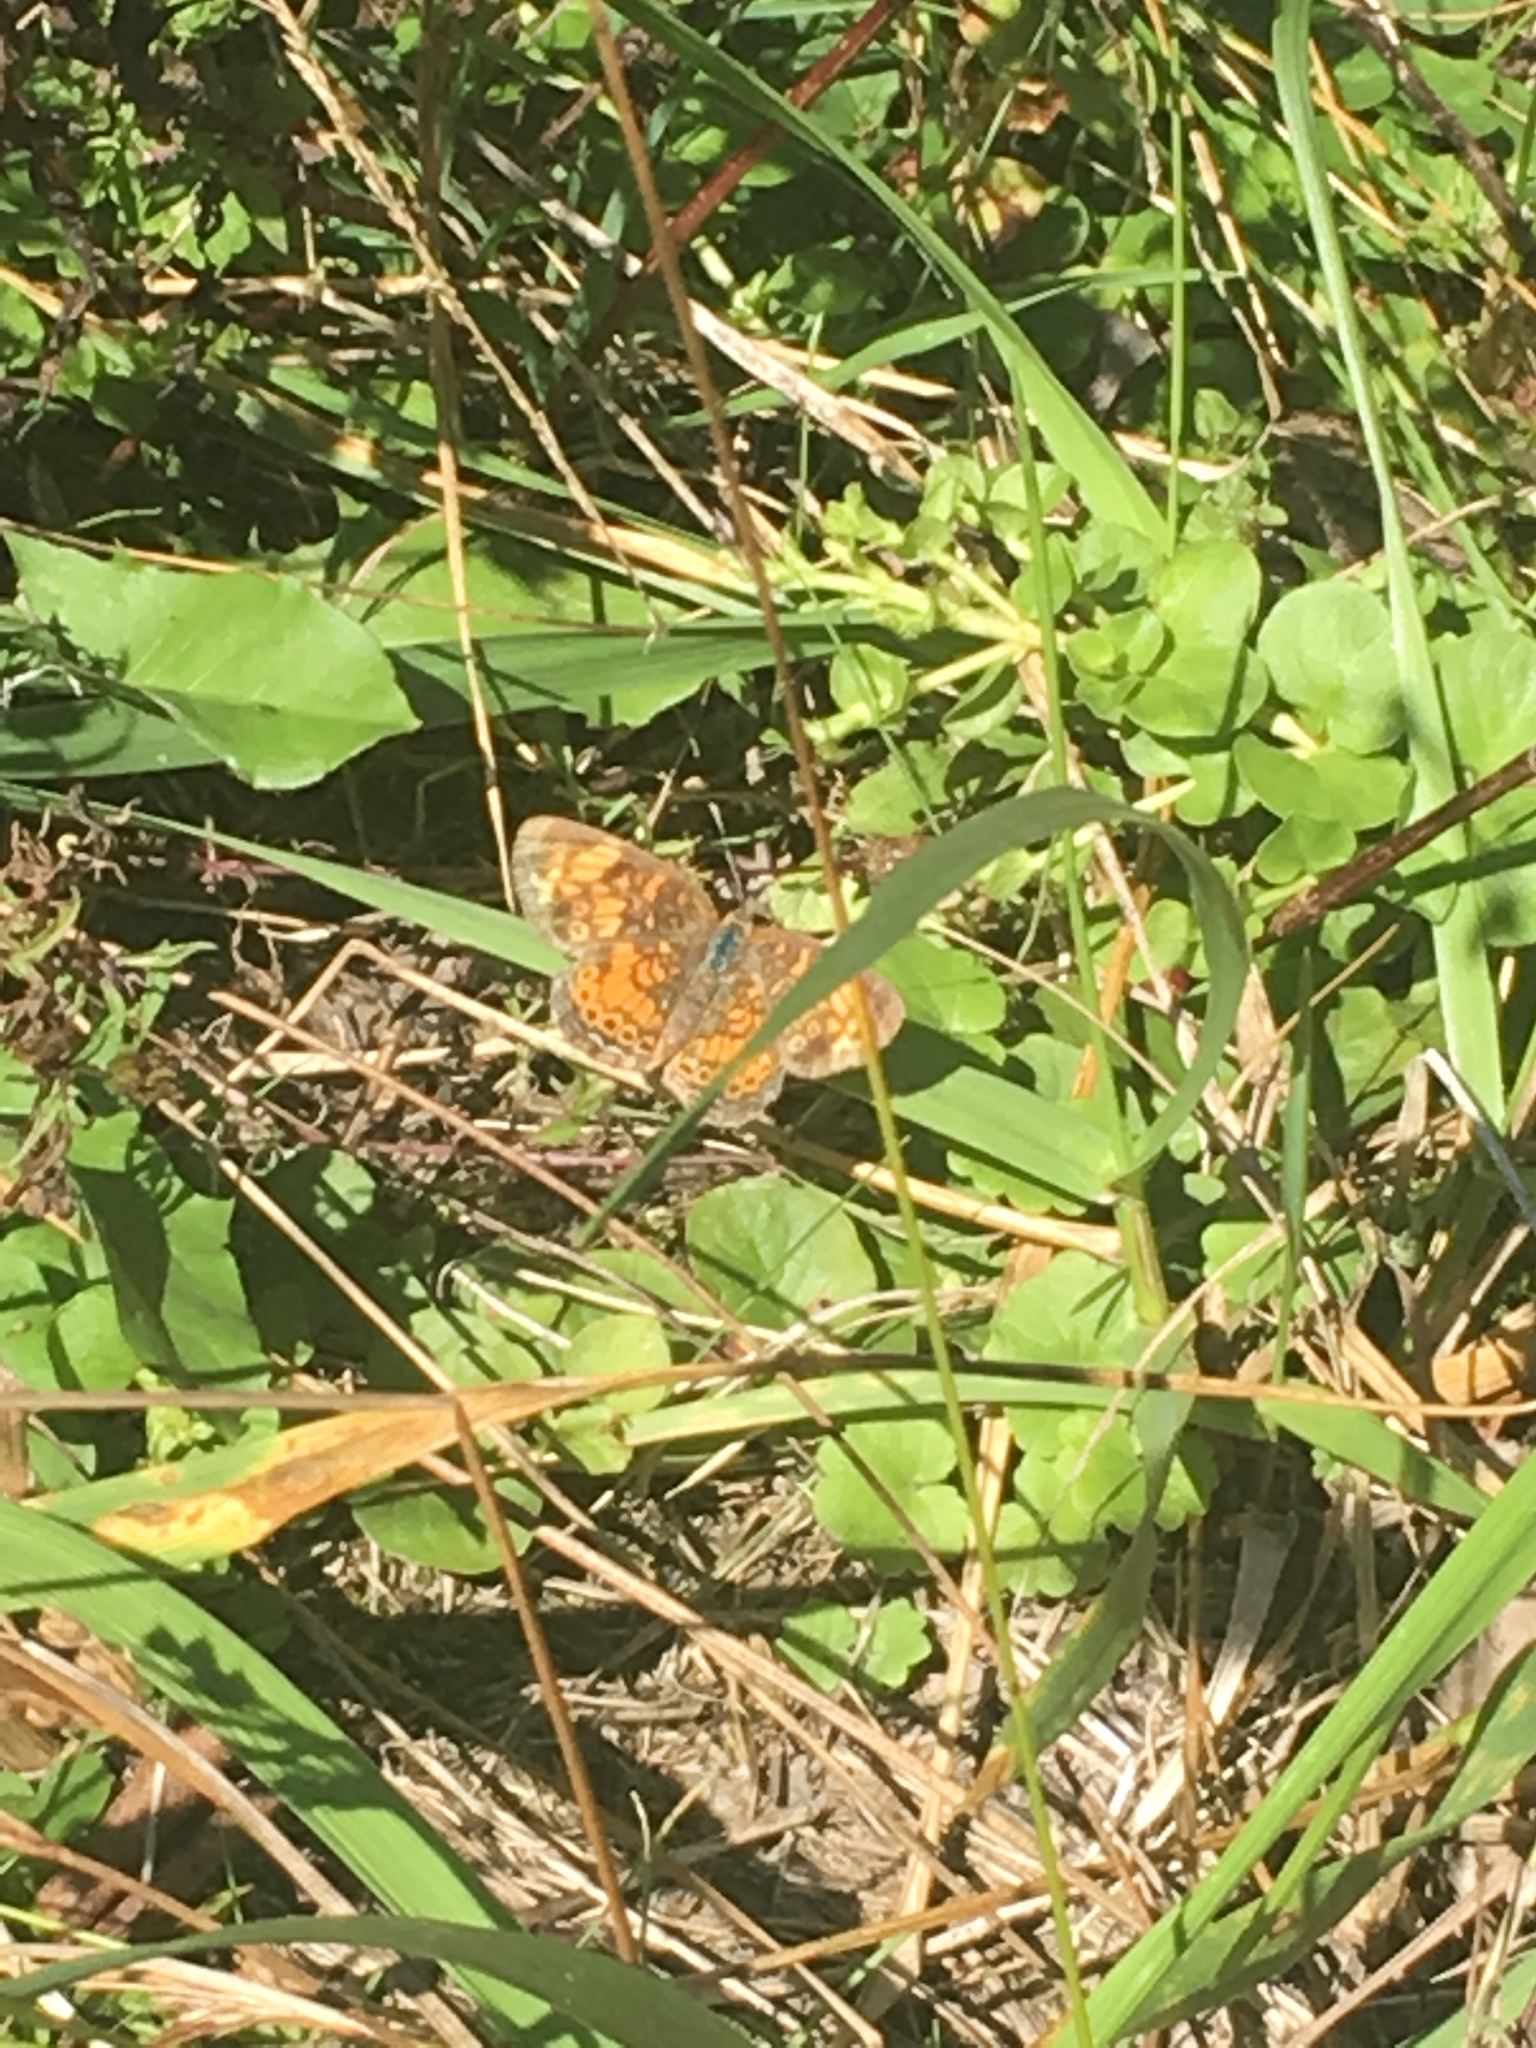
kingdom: Animalia
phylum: Arthropoda
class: Insecta
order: Lepidoptera
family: Nymphalidae
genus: Phyciodes
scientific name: Phyciodes tharos
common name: Pearl crescent
